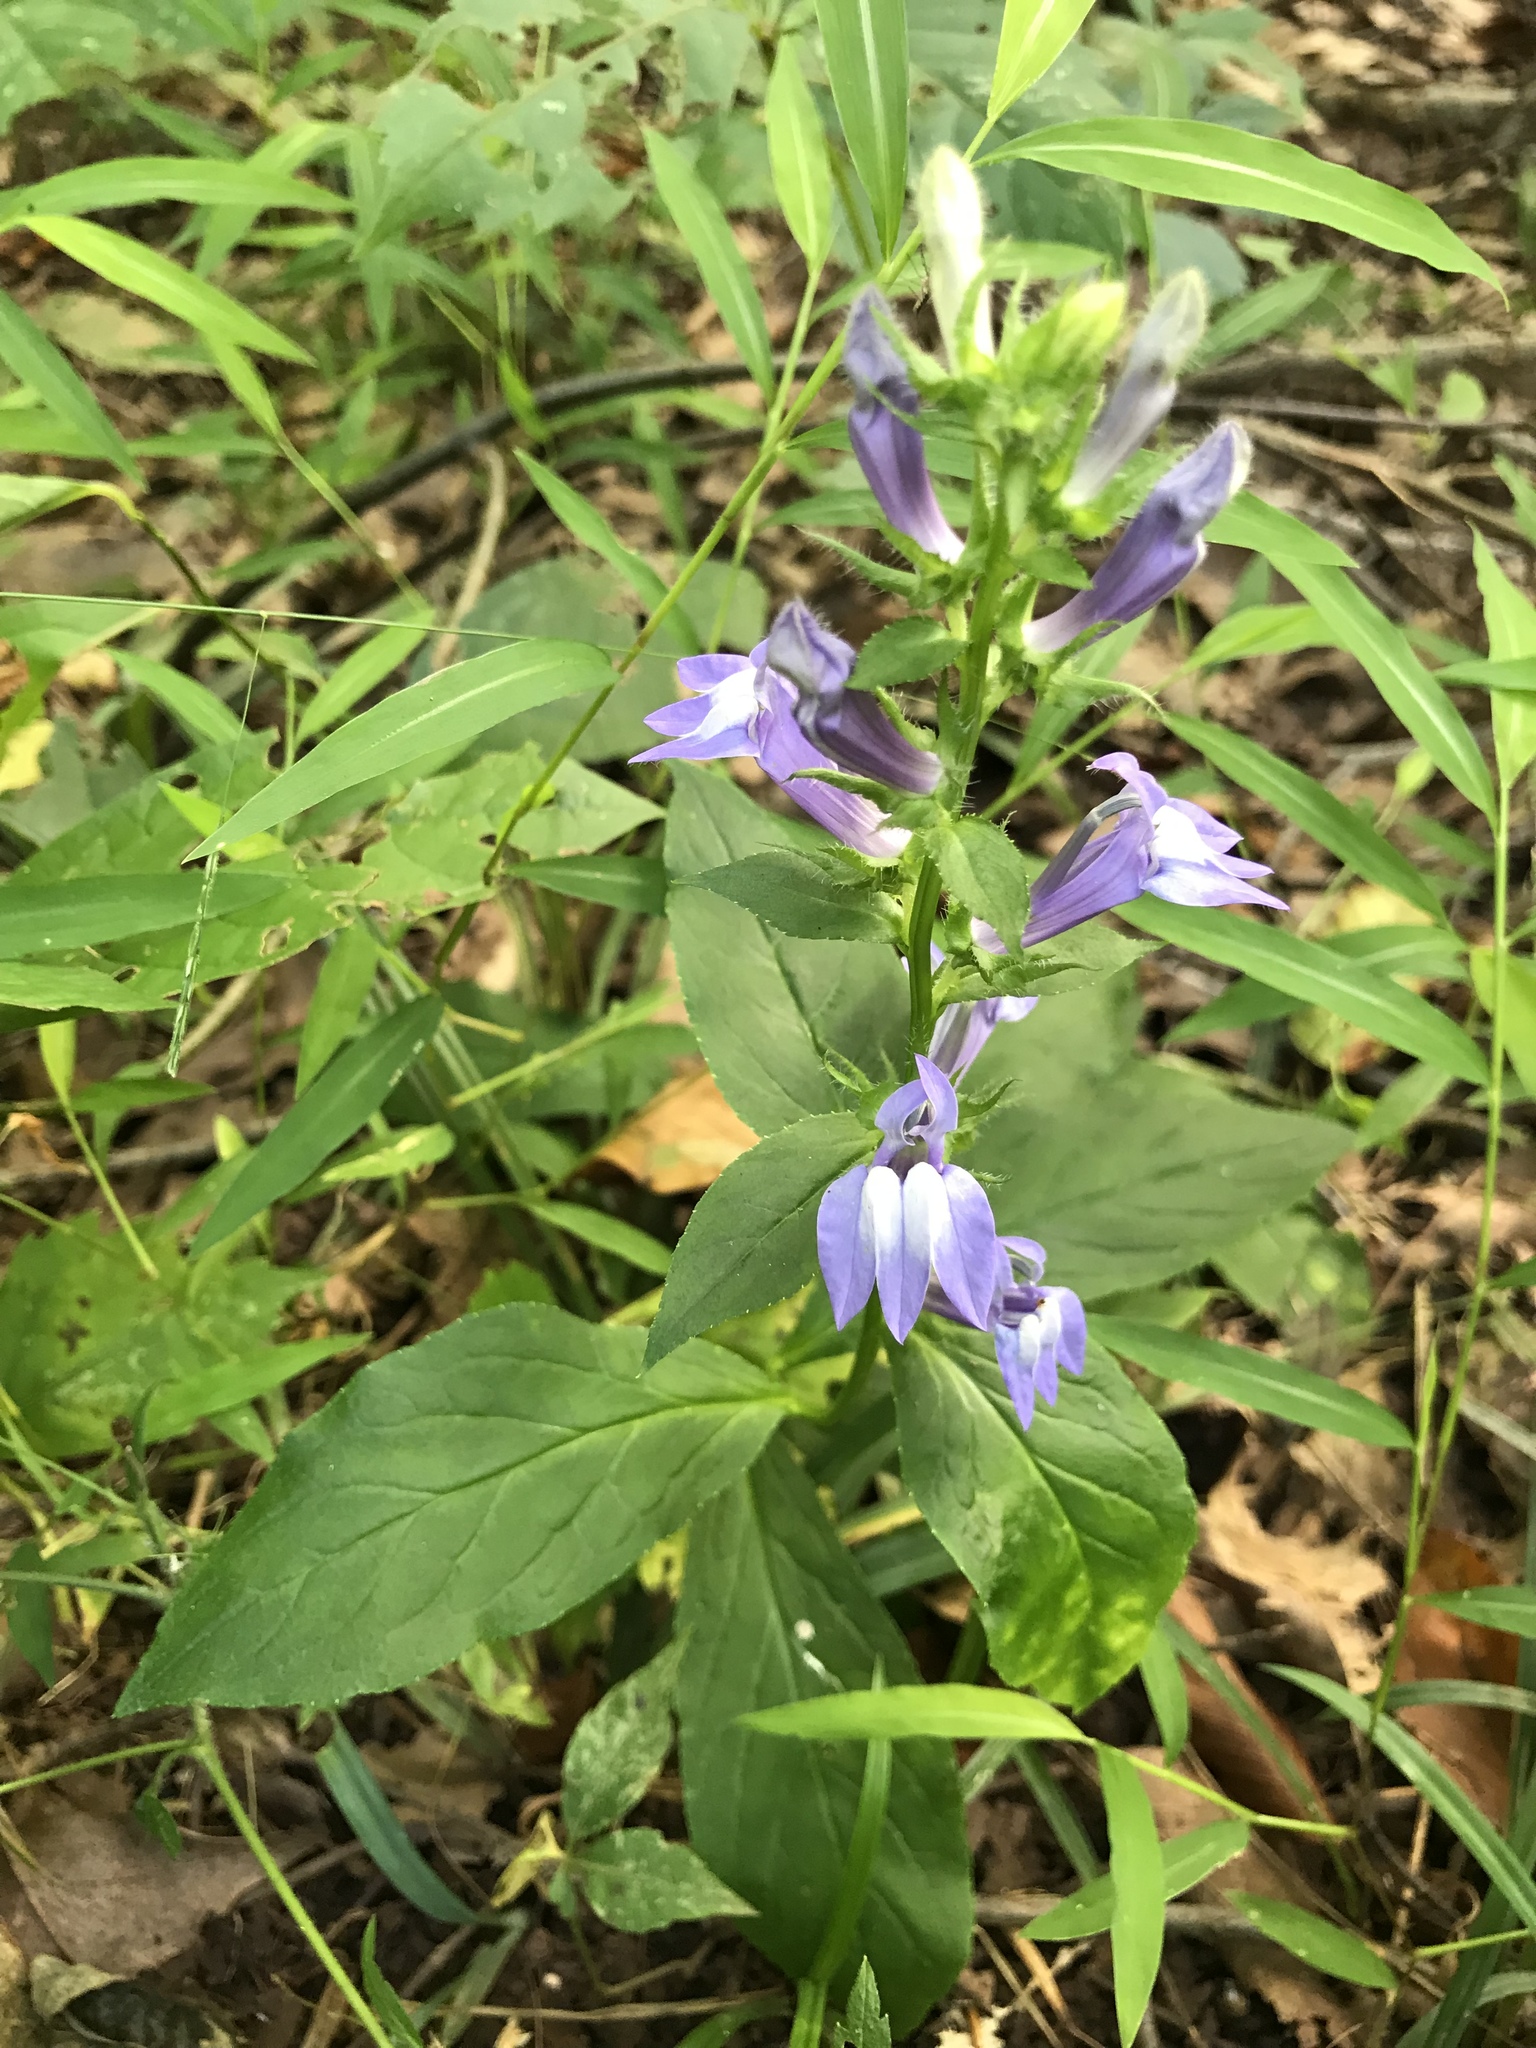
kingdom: Plantae
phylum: Tracheophyta
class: Magnoliopsida
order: Asterales
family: Campanulaceae
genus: Lobelia
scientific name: Lobelia siphilitica
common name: Great lobelia
